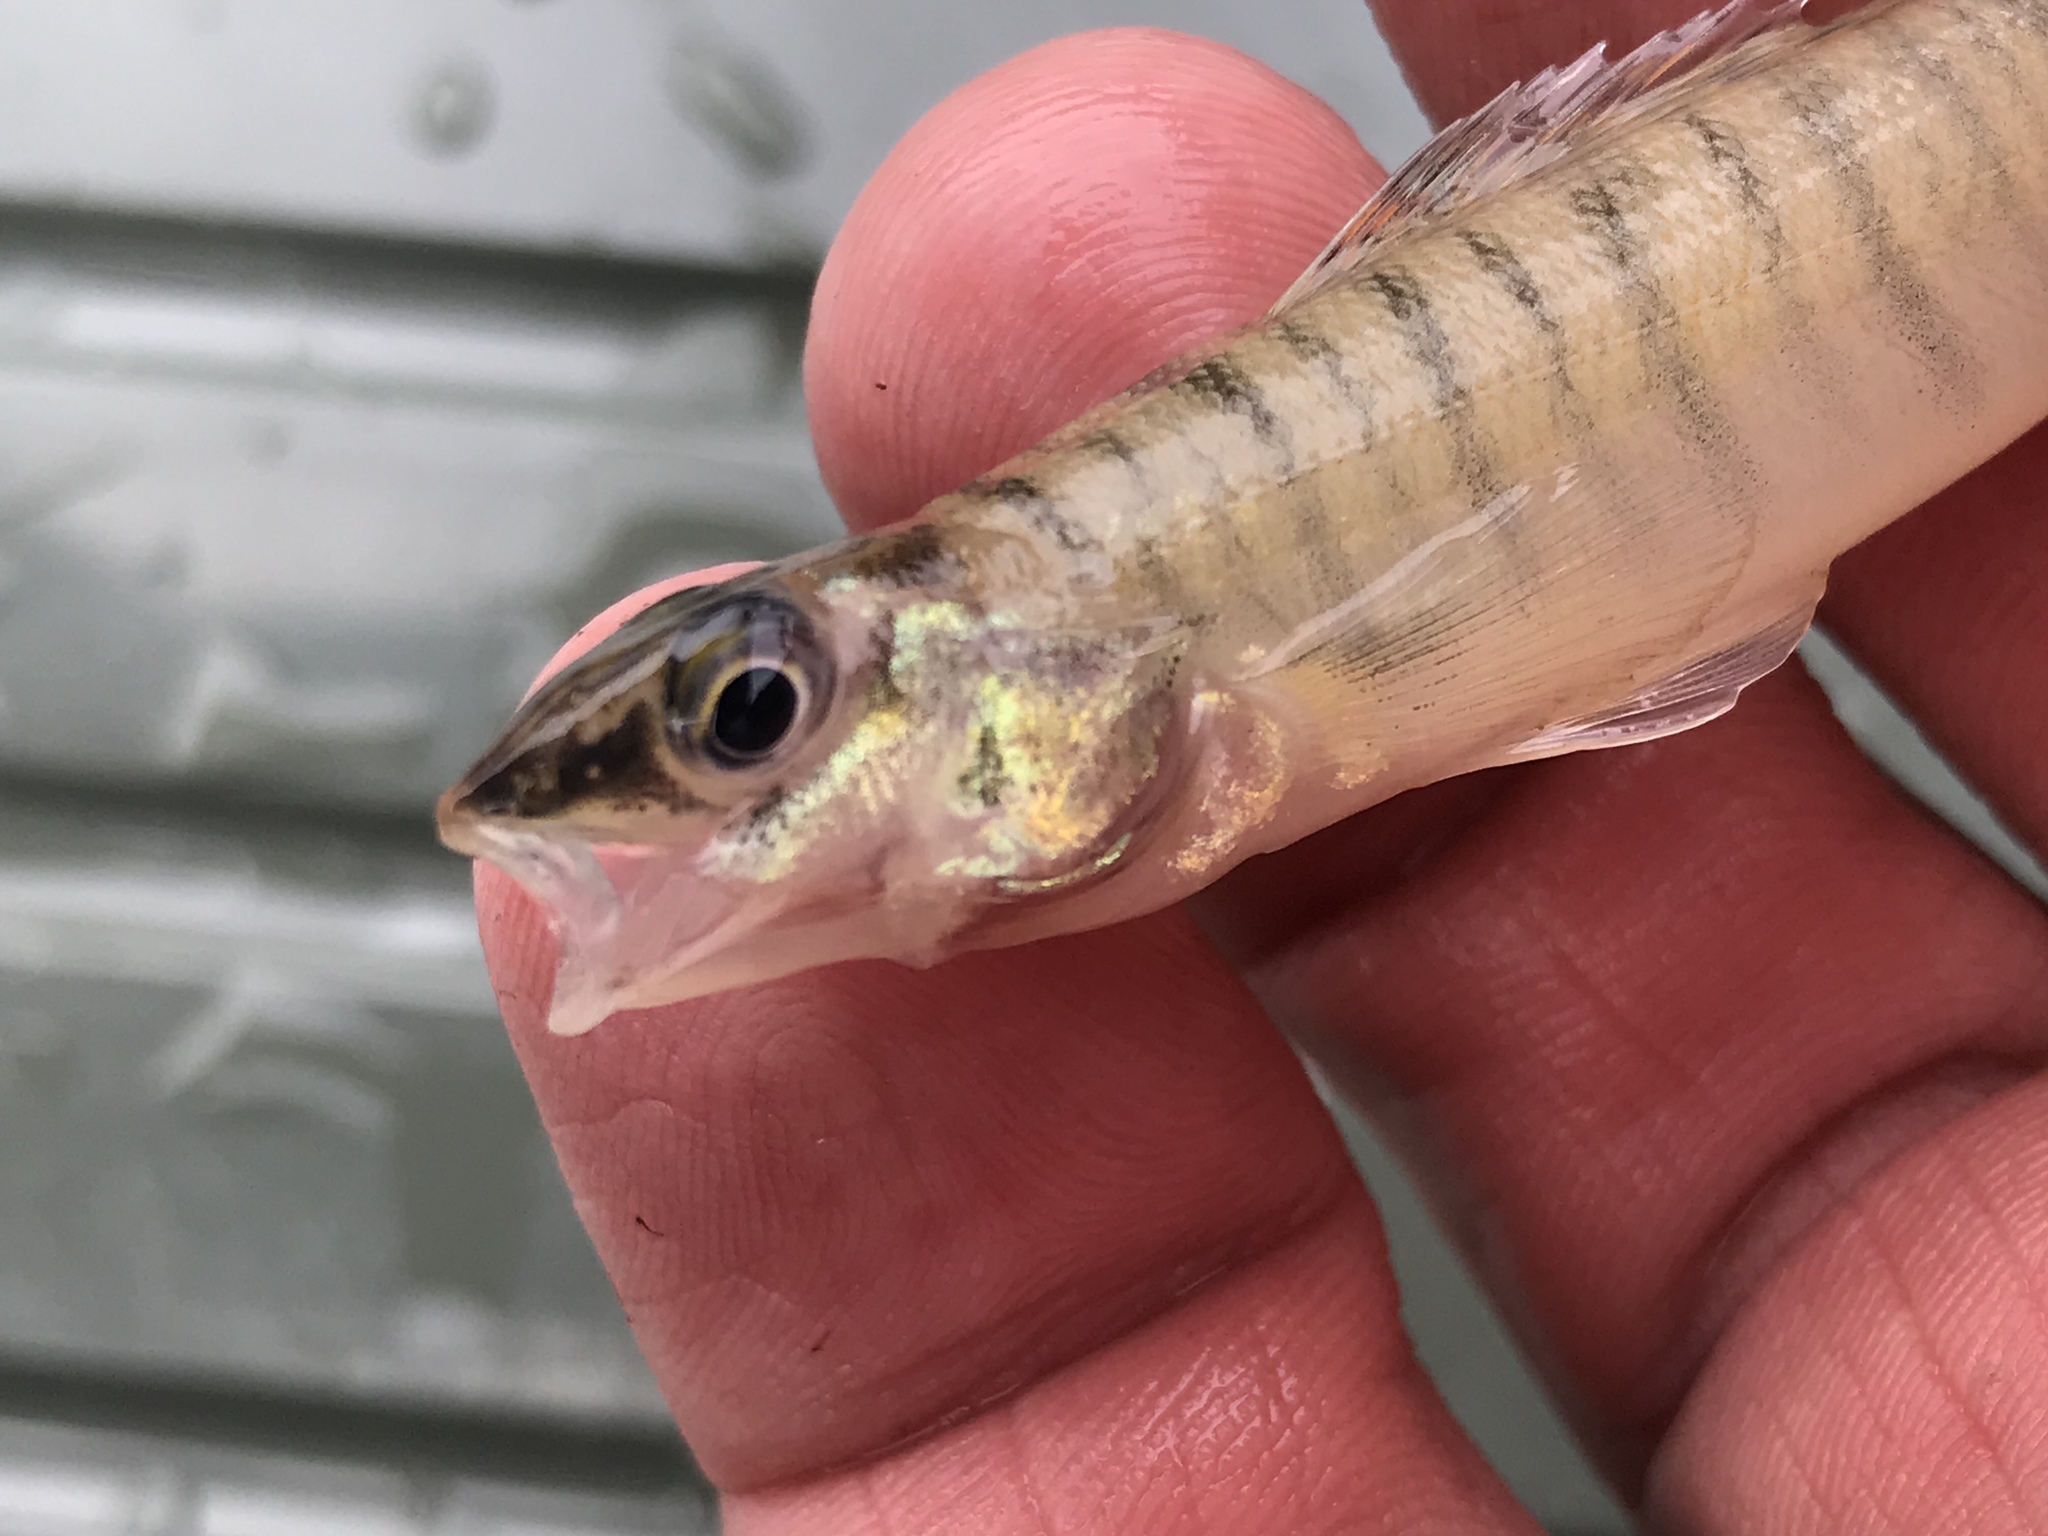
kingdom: Animalia
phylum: Chordata
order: Perciformes
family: Percidae
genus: Percina
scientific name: Percina macrolepida
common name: Bigscale logperch
